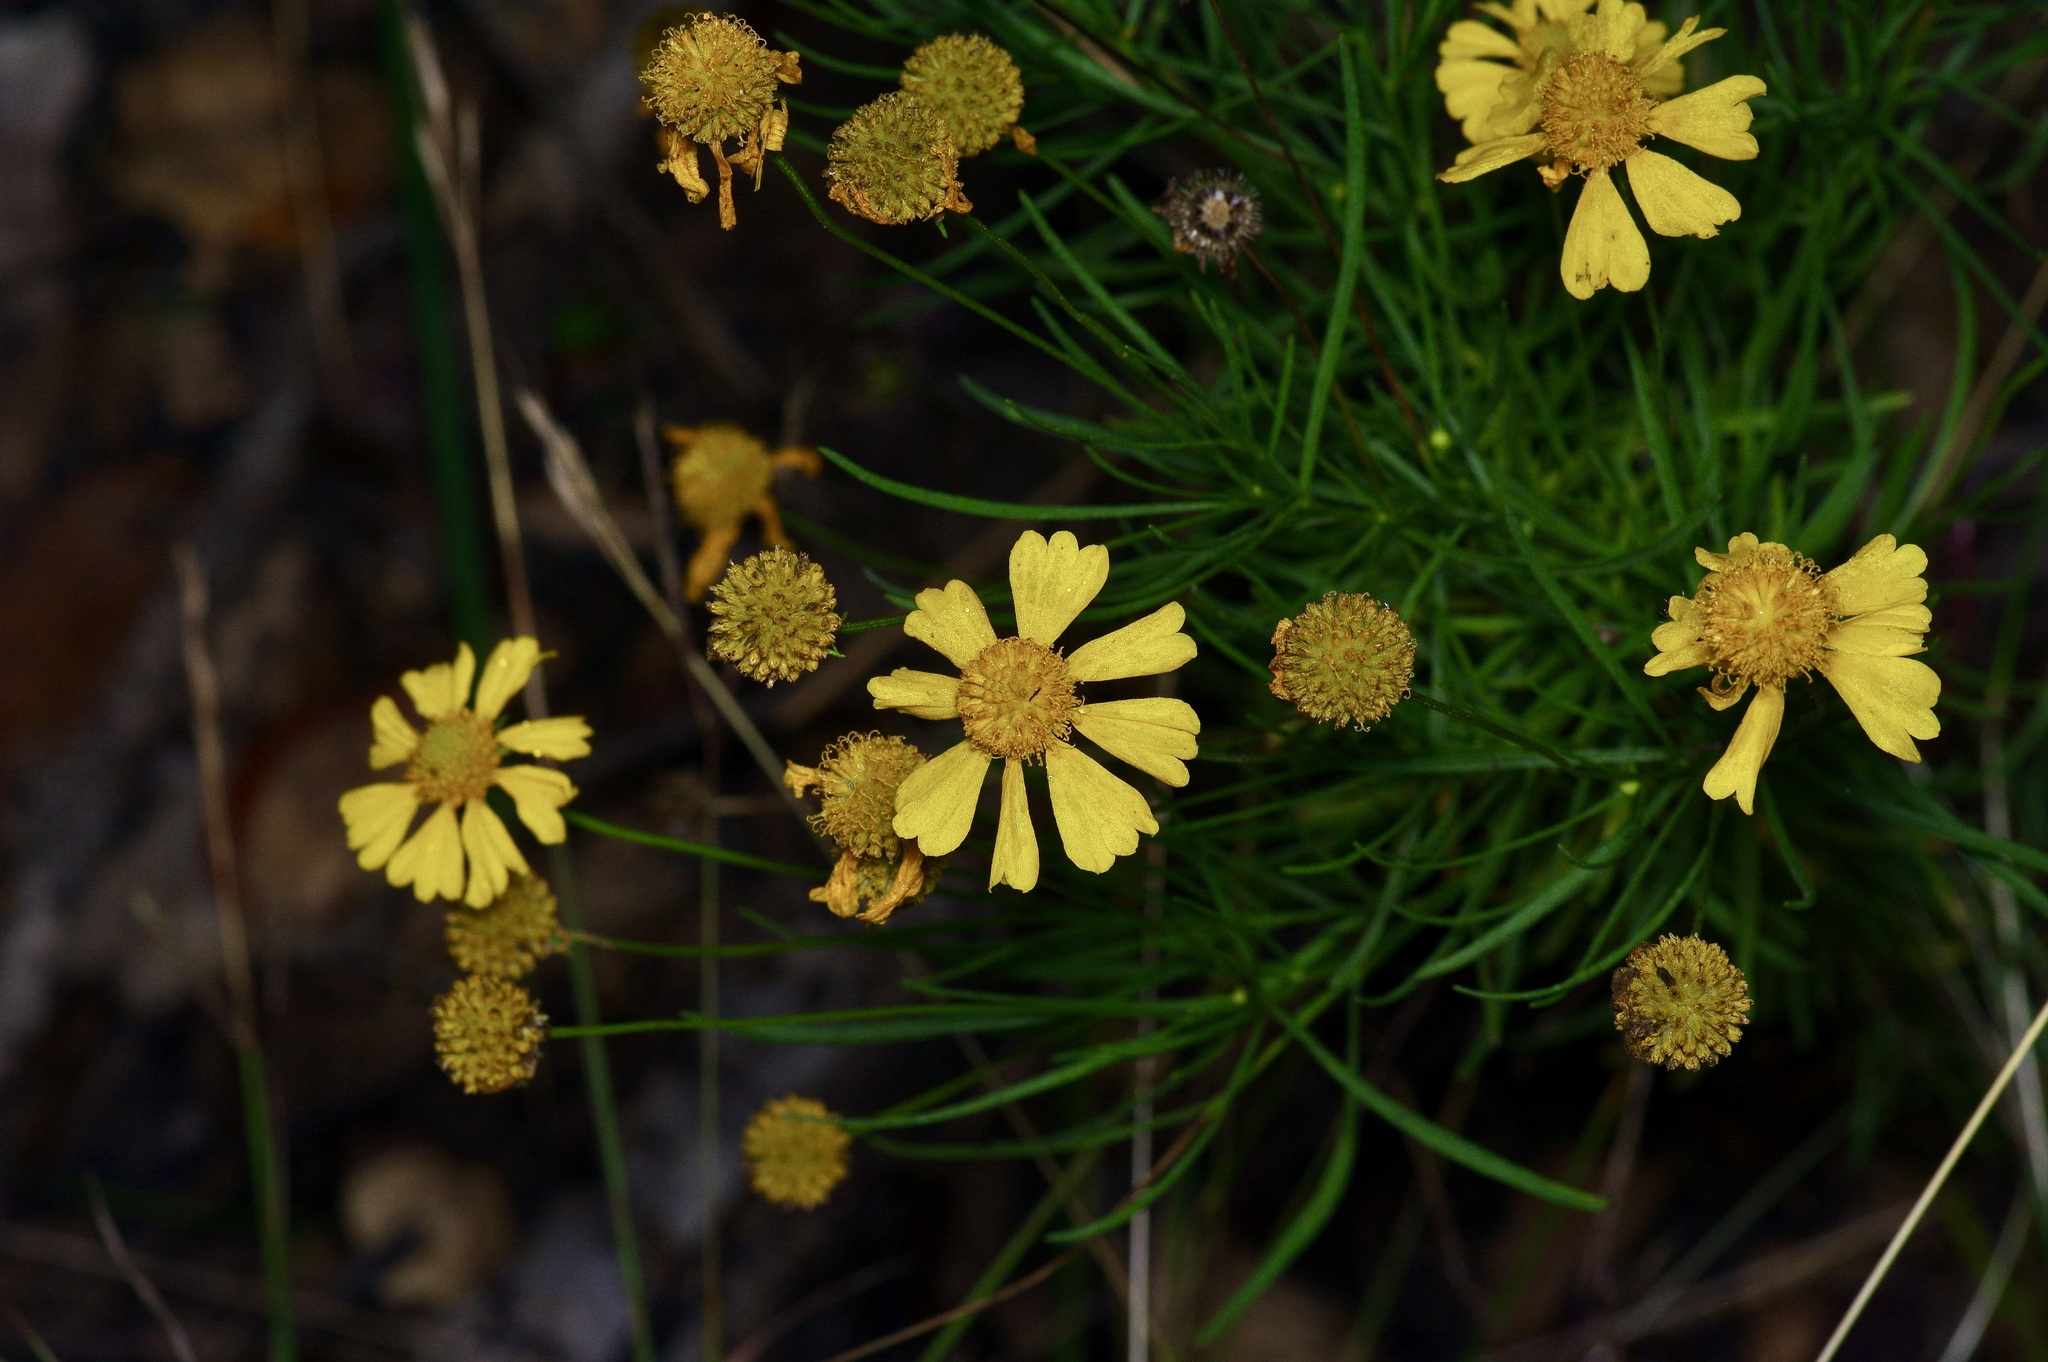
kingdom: Plantae
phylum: Tracheophyta
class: Magnoliopsida
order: Asterales
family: Asteraceae
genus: Helenium
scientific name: Helenium amarum
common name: Bitter sneezeweed
